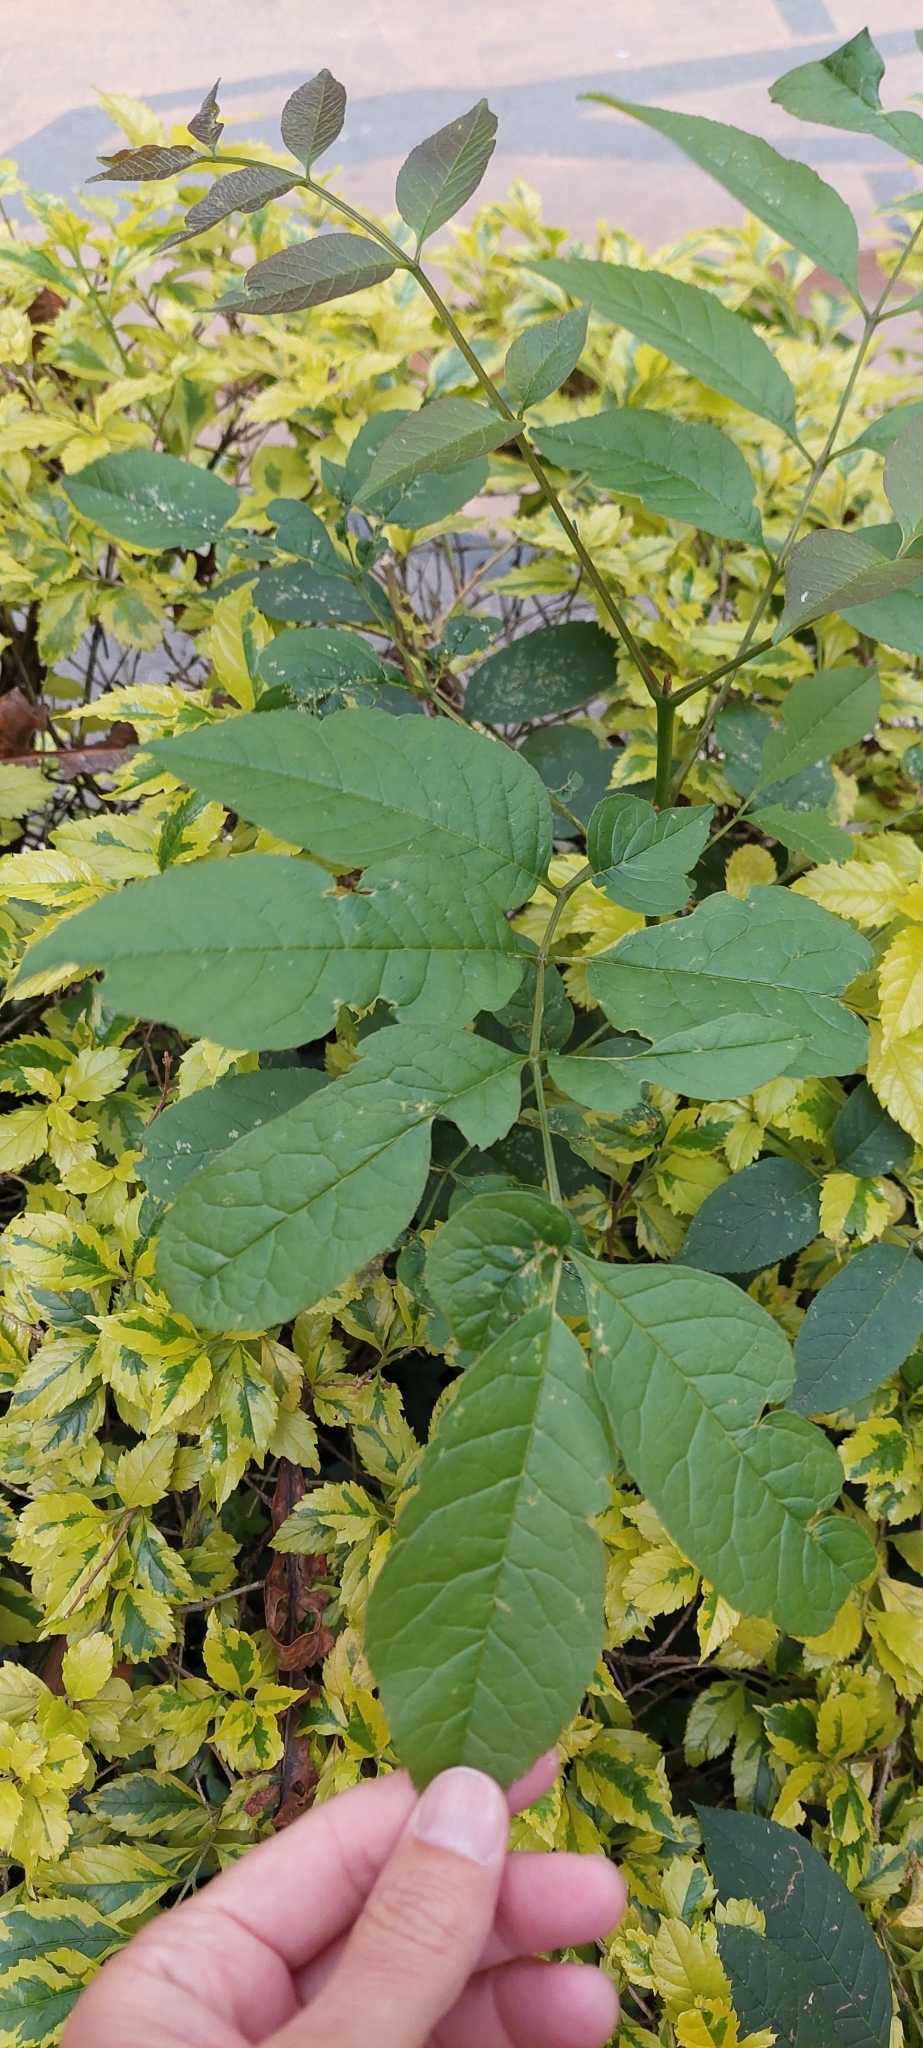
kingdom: Plantae
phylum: Tracheophyta
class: Magnoliopsida
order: Lamiales
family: Oleaceae
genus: Fraxinus
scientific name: Fraxinus uhdei
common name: Shamel ash
